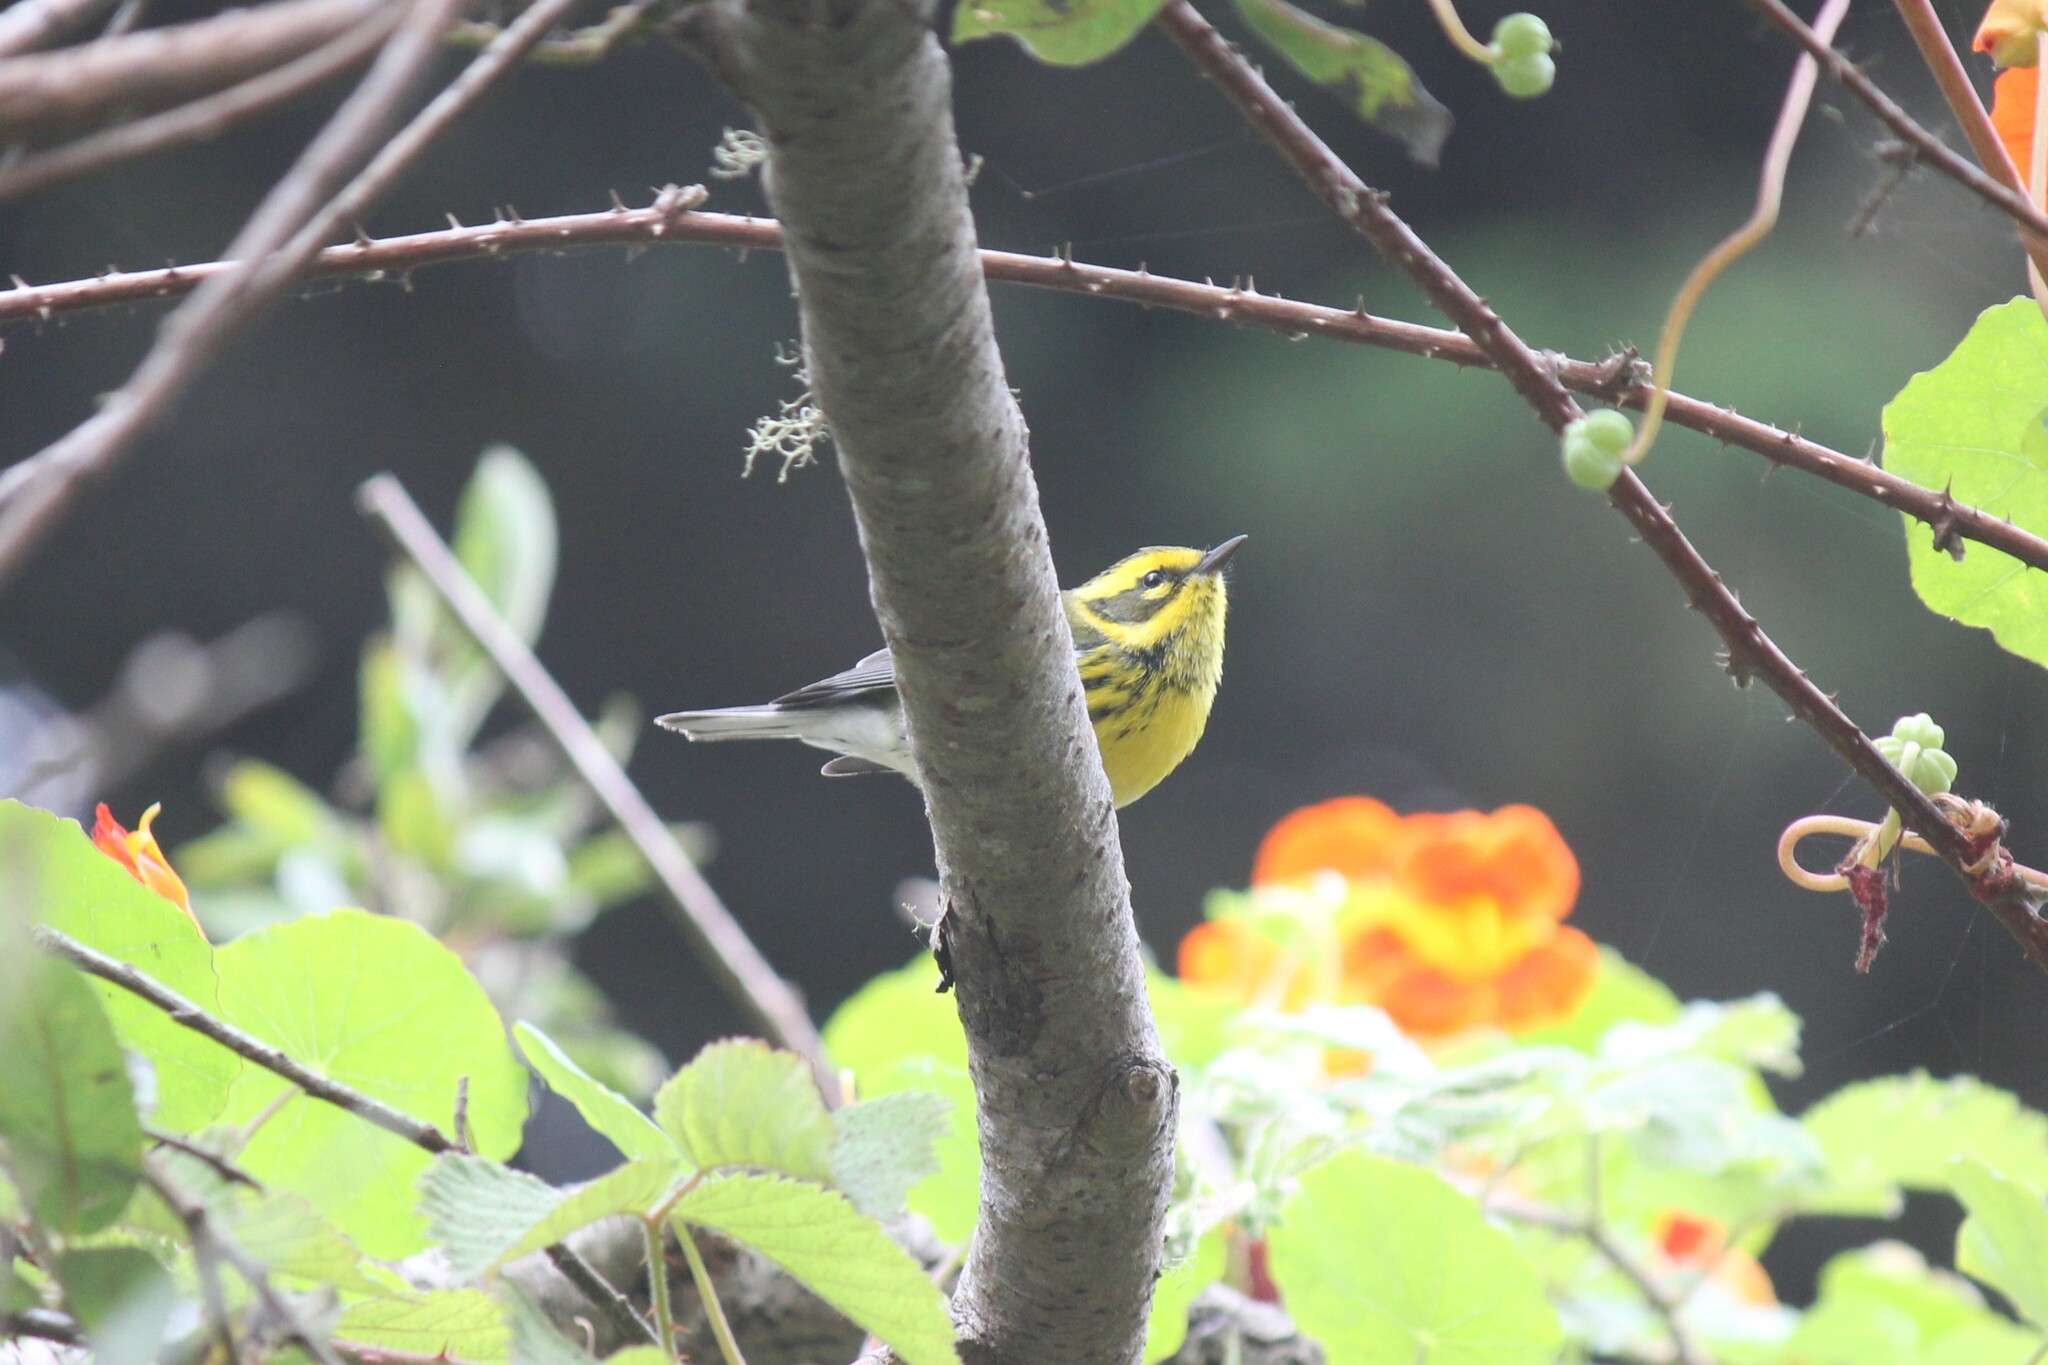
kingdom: Animalia
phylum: Chordata
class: Aves
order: Passeriformes
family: Parulidae
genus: Setophaga
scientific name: Setophaga townsendi
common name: Townsend's warbler
